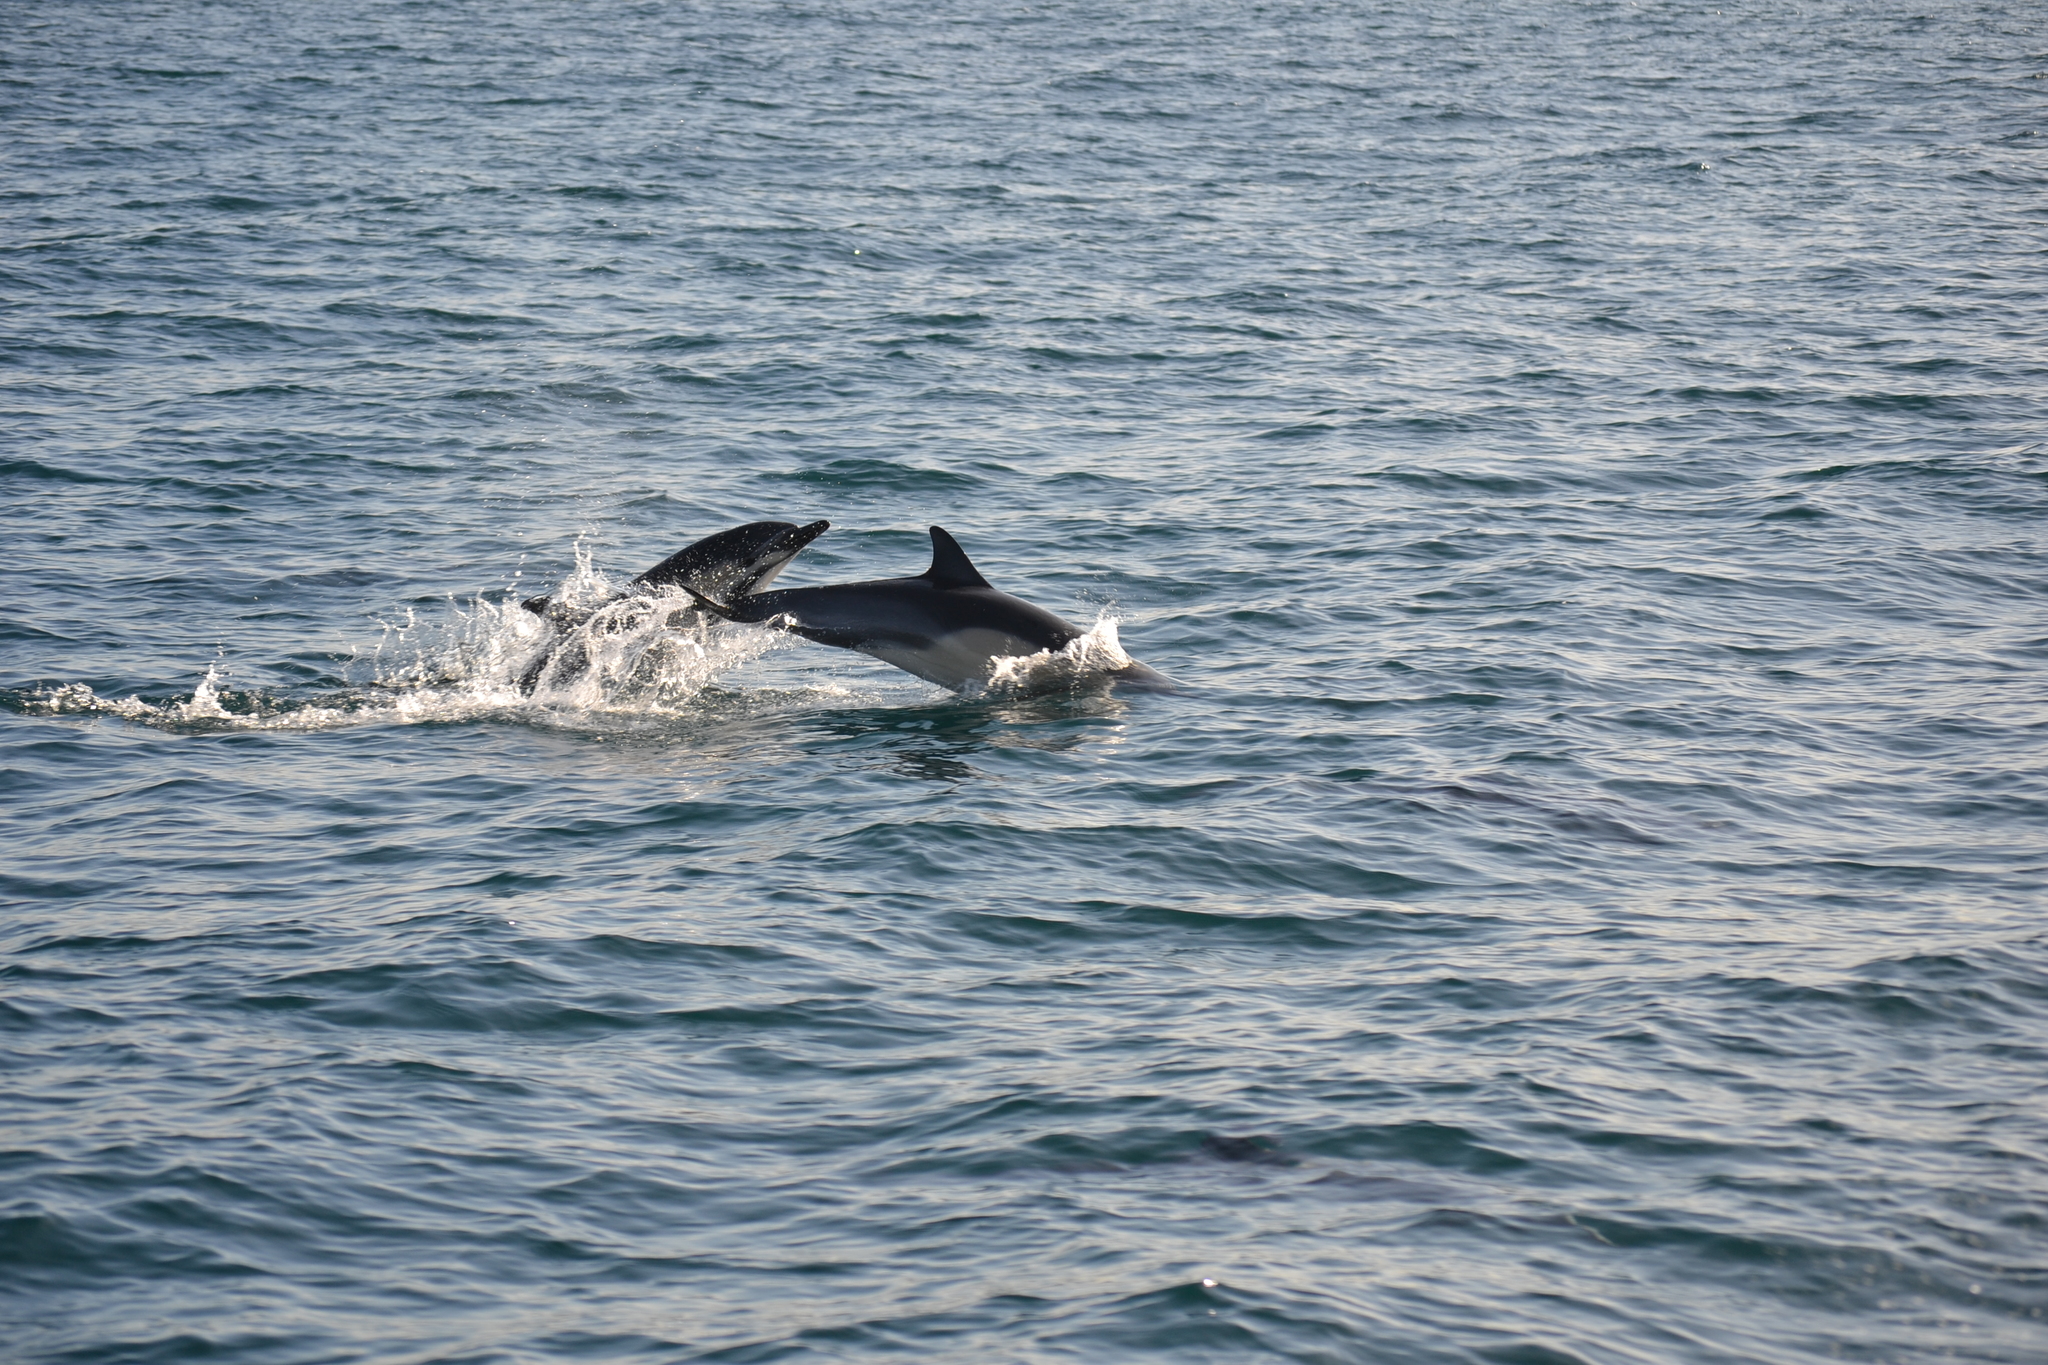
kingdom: Animalia
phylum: Chordata
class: Mammalia
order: Cetacea
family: Delphinidae
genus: Delphinus
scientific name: Delphinus delphis
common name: Common dolphin
